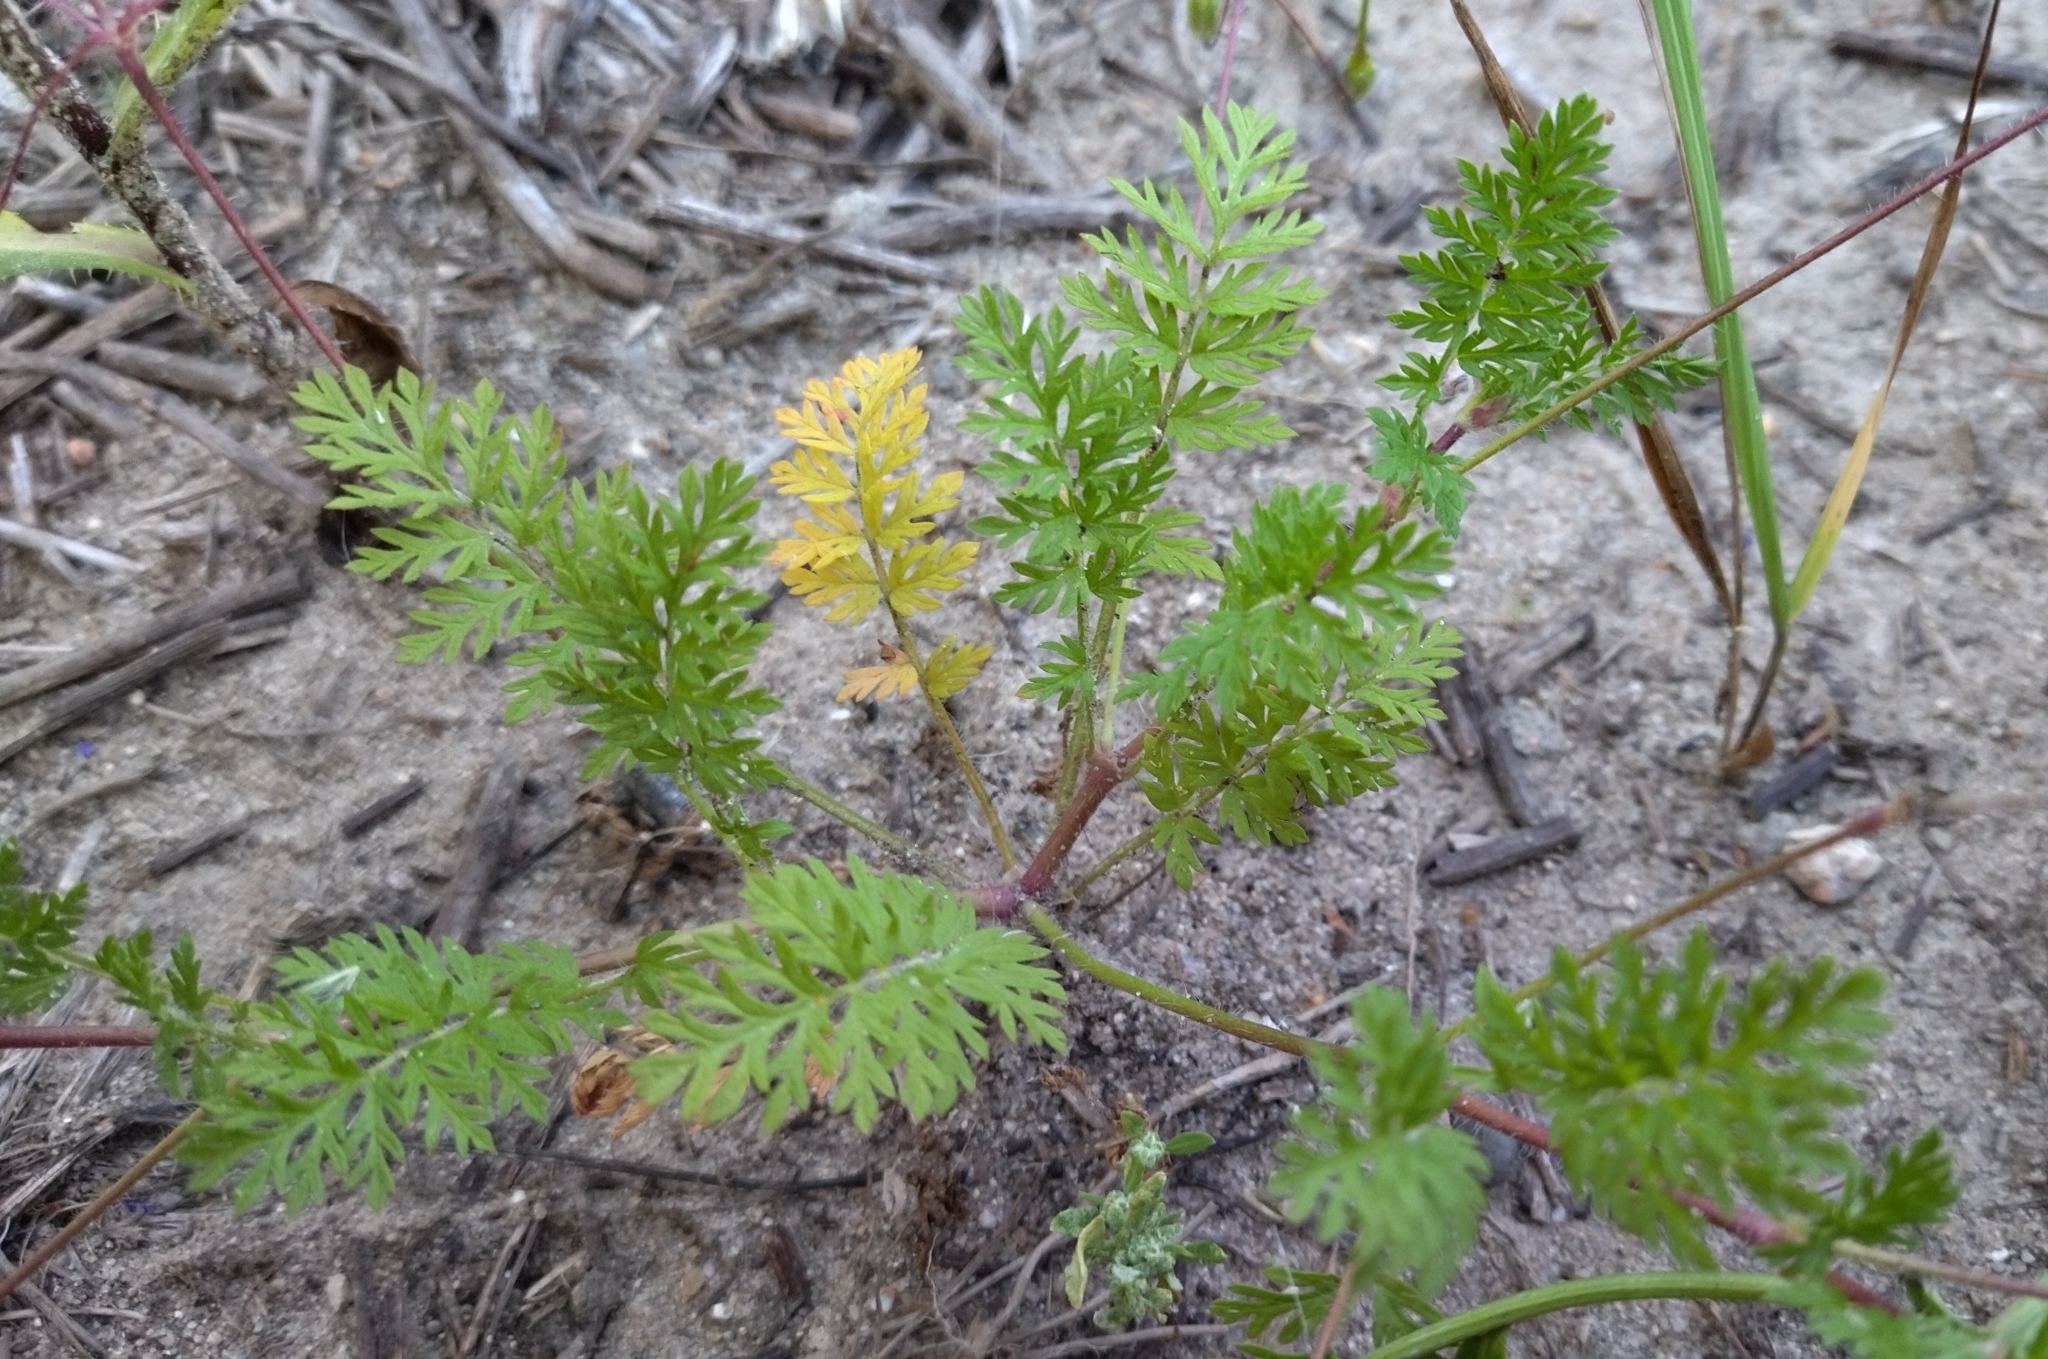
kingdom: Plantae
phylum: Tracheophyta
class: Magnoliopsida
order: Geraniales
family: Geraniaceae
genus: Erodium
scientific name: Erodium cicutarium
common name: Common stork's-bill
